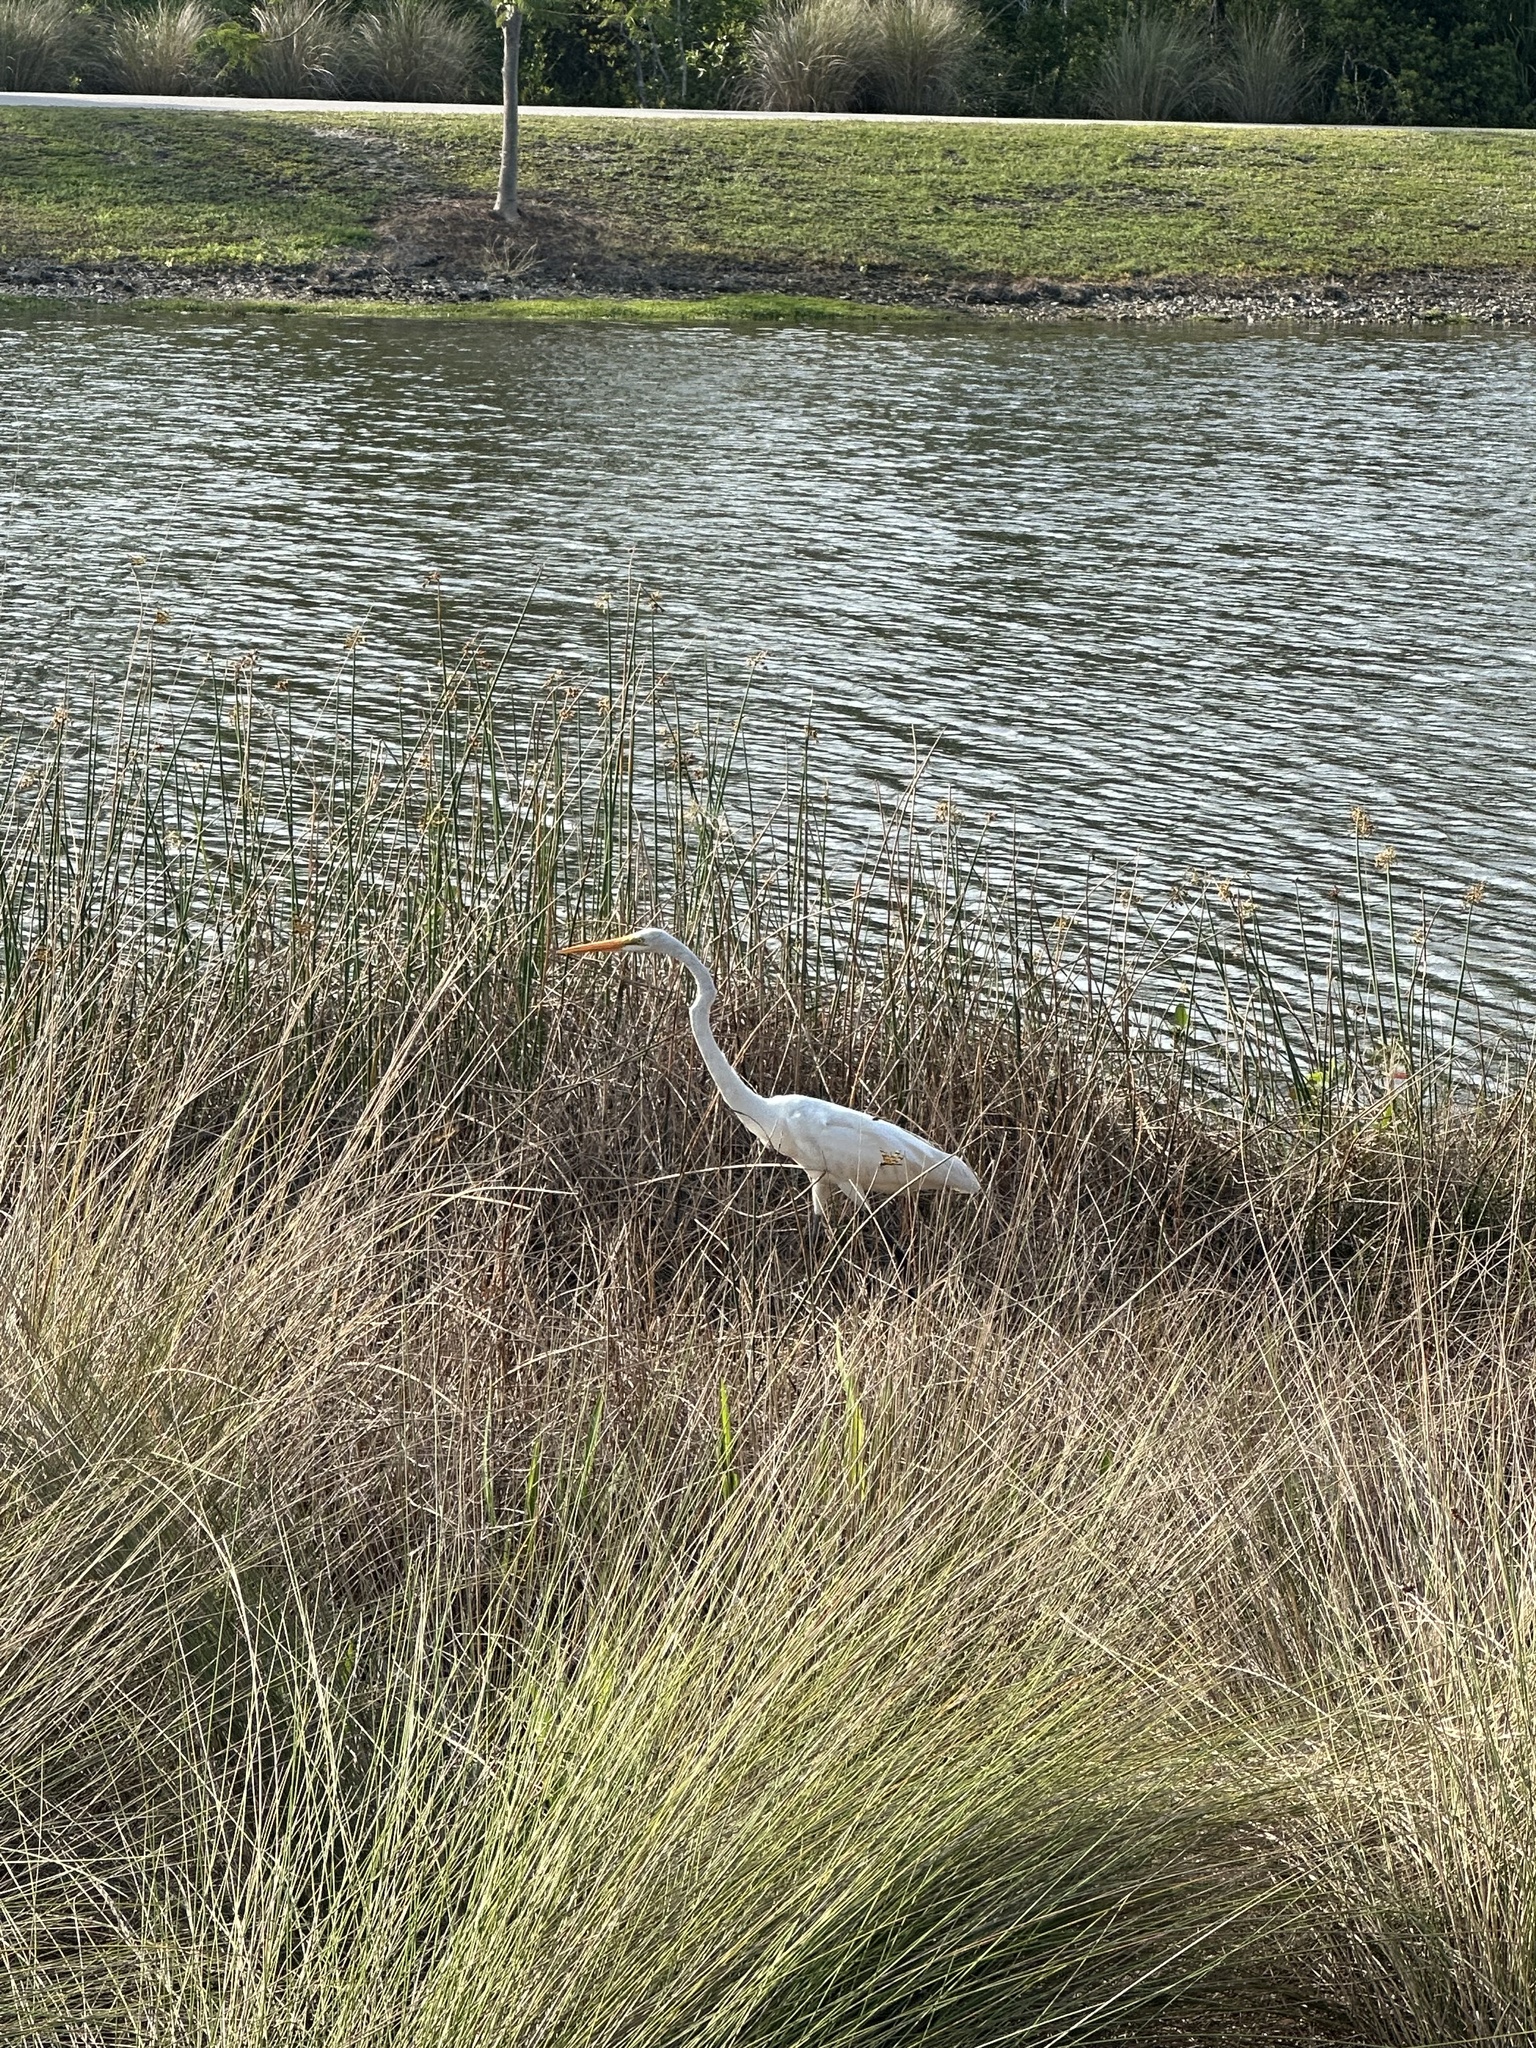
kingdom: Animalia
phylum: Chordata
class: Aves
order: Pelecaniformes
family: Ardeidae
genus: Ardea
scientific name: Ardea alba
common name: Great egret
